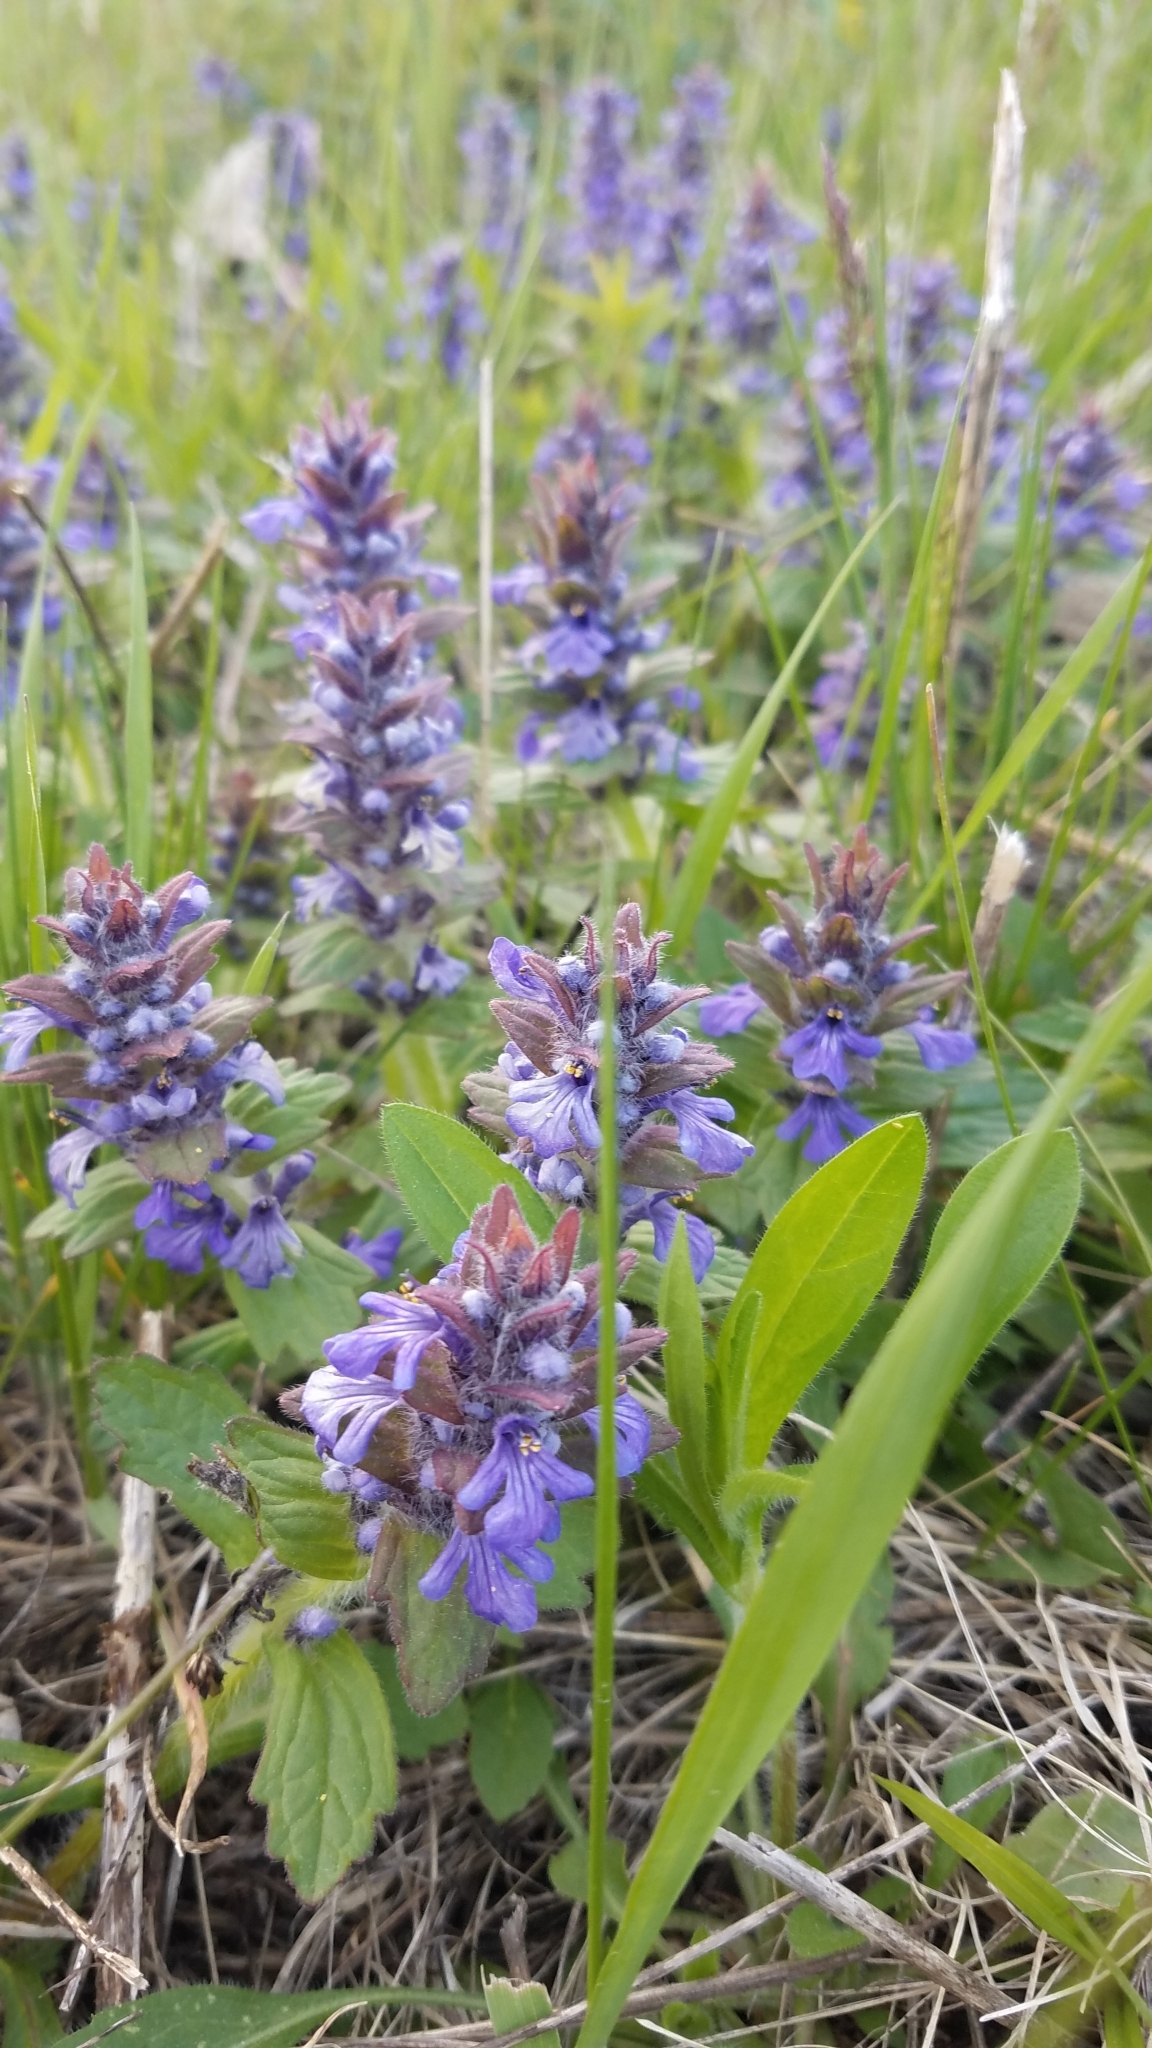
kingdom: Plantae
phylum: Tracheophyta
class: Magnoliopsida
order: Lamiales
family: Lamiaceae
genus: Ajuga
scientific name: Ajuga reptans
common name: Bugle
